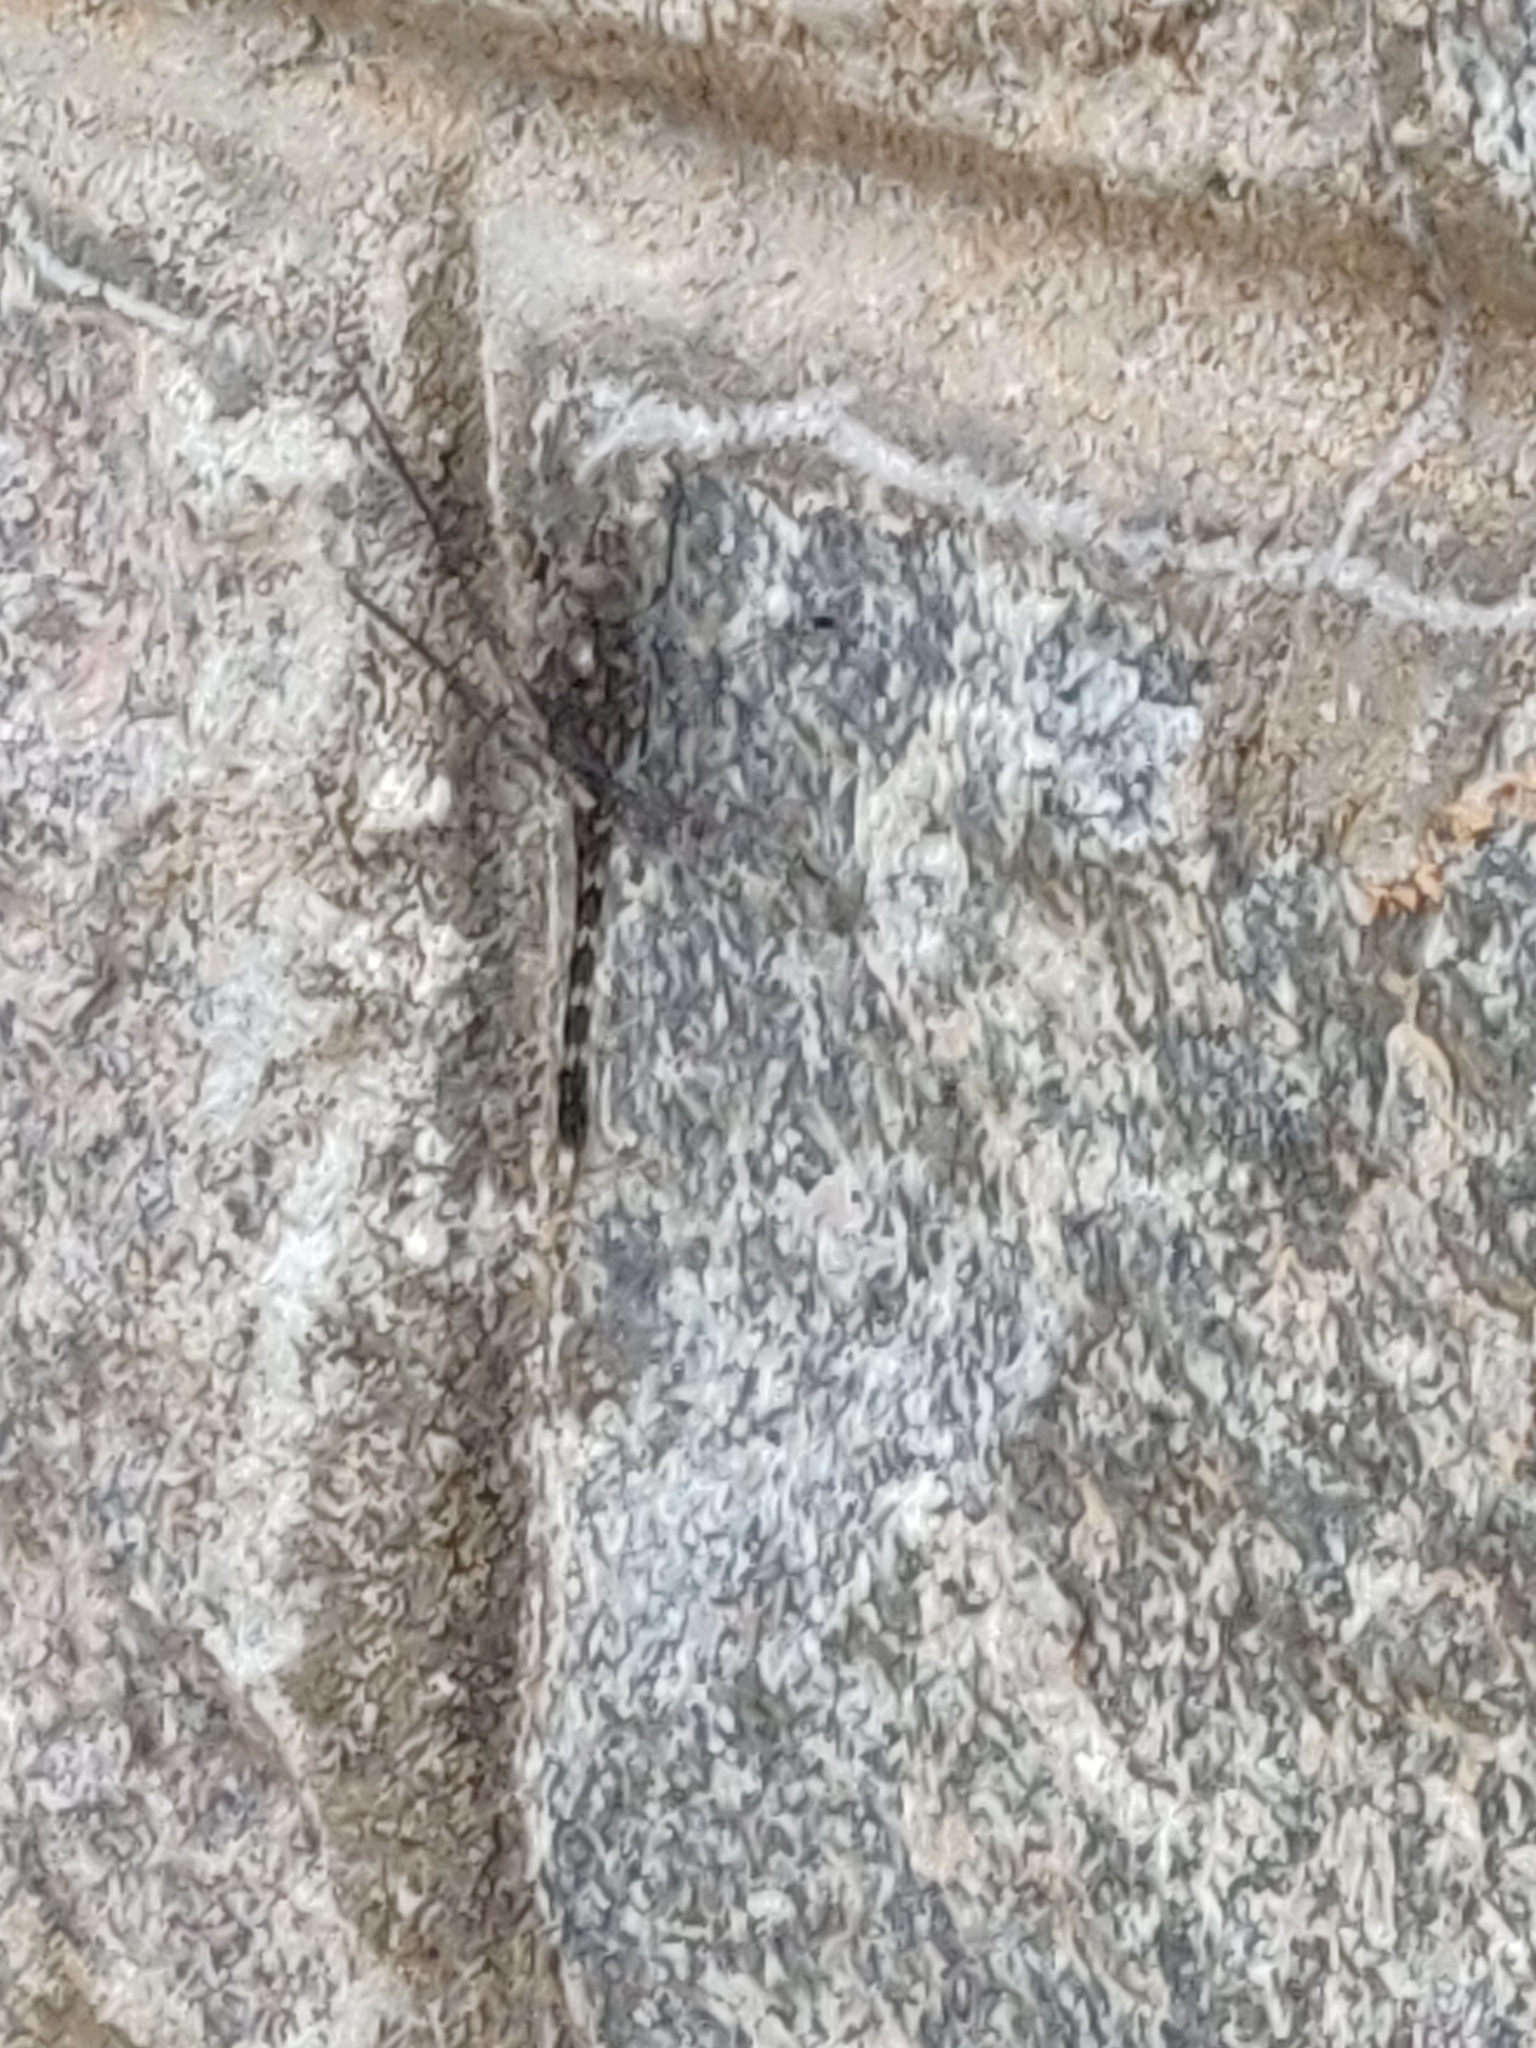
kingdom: Animalia
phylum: Arthropoda
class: Insecta
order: Odonata
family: Libellulidae
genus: Bradinopyga
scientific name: Bradinopyga geminata
